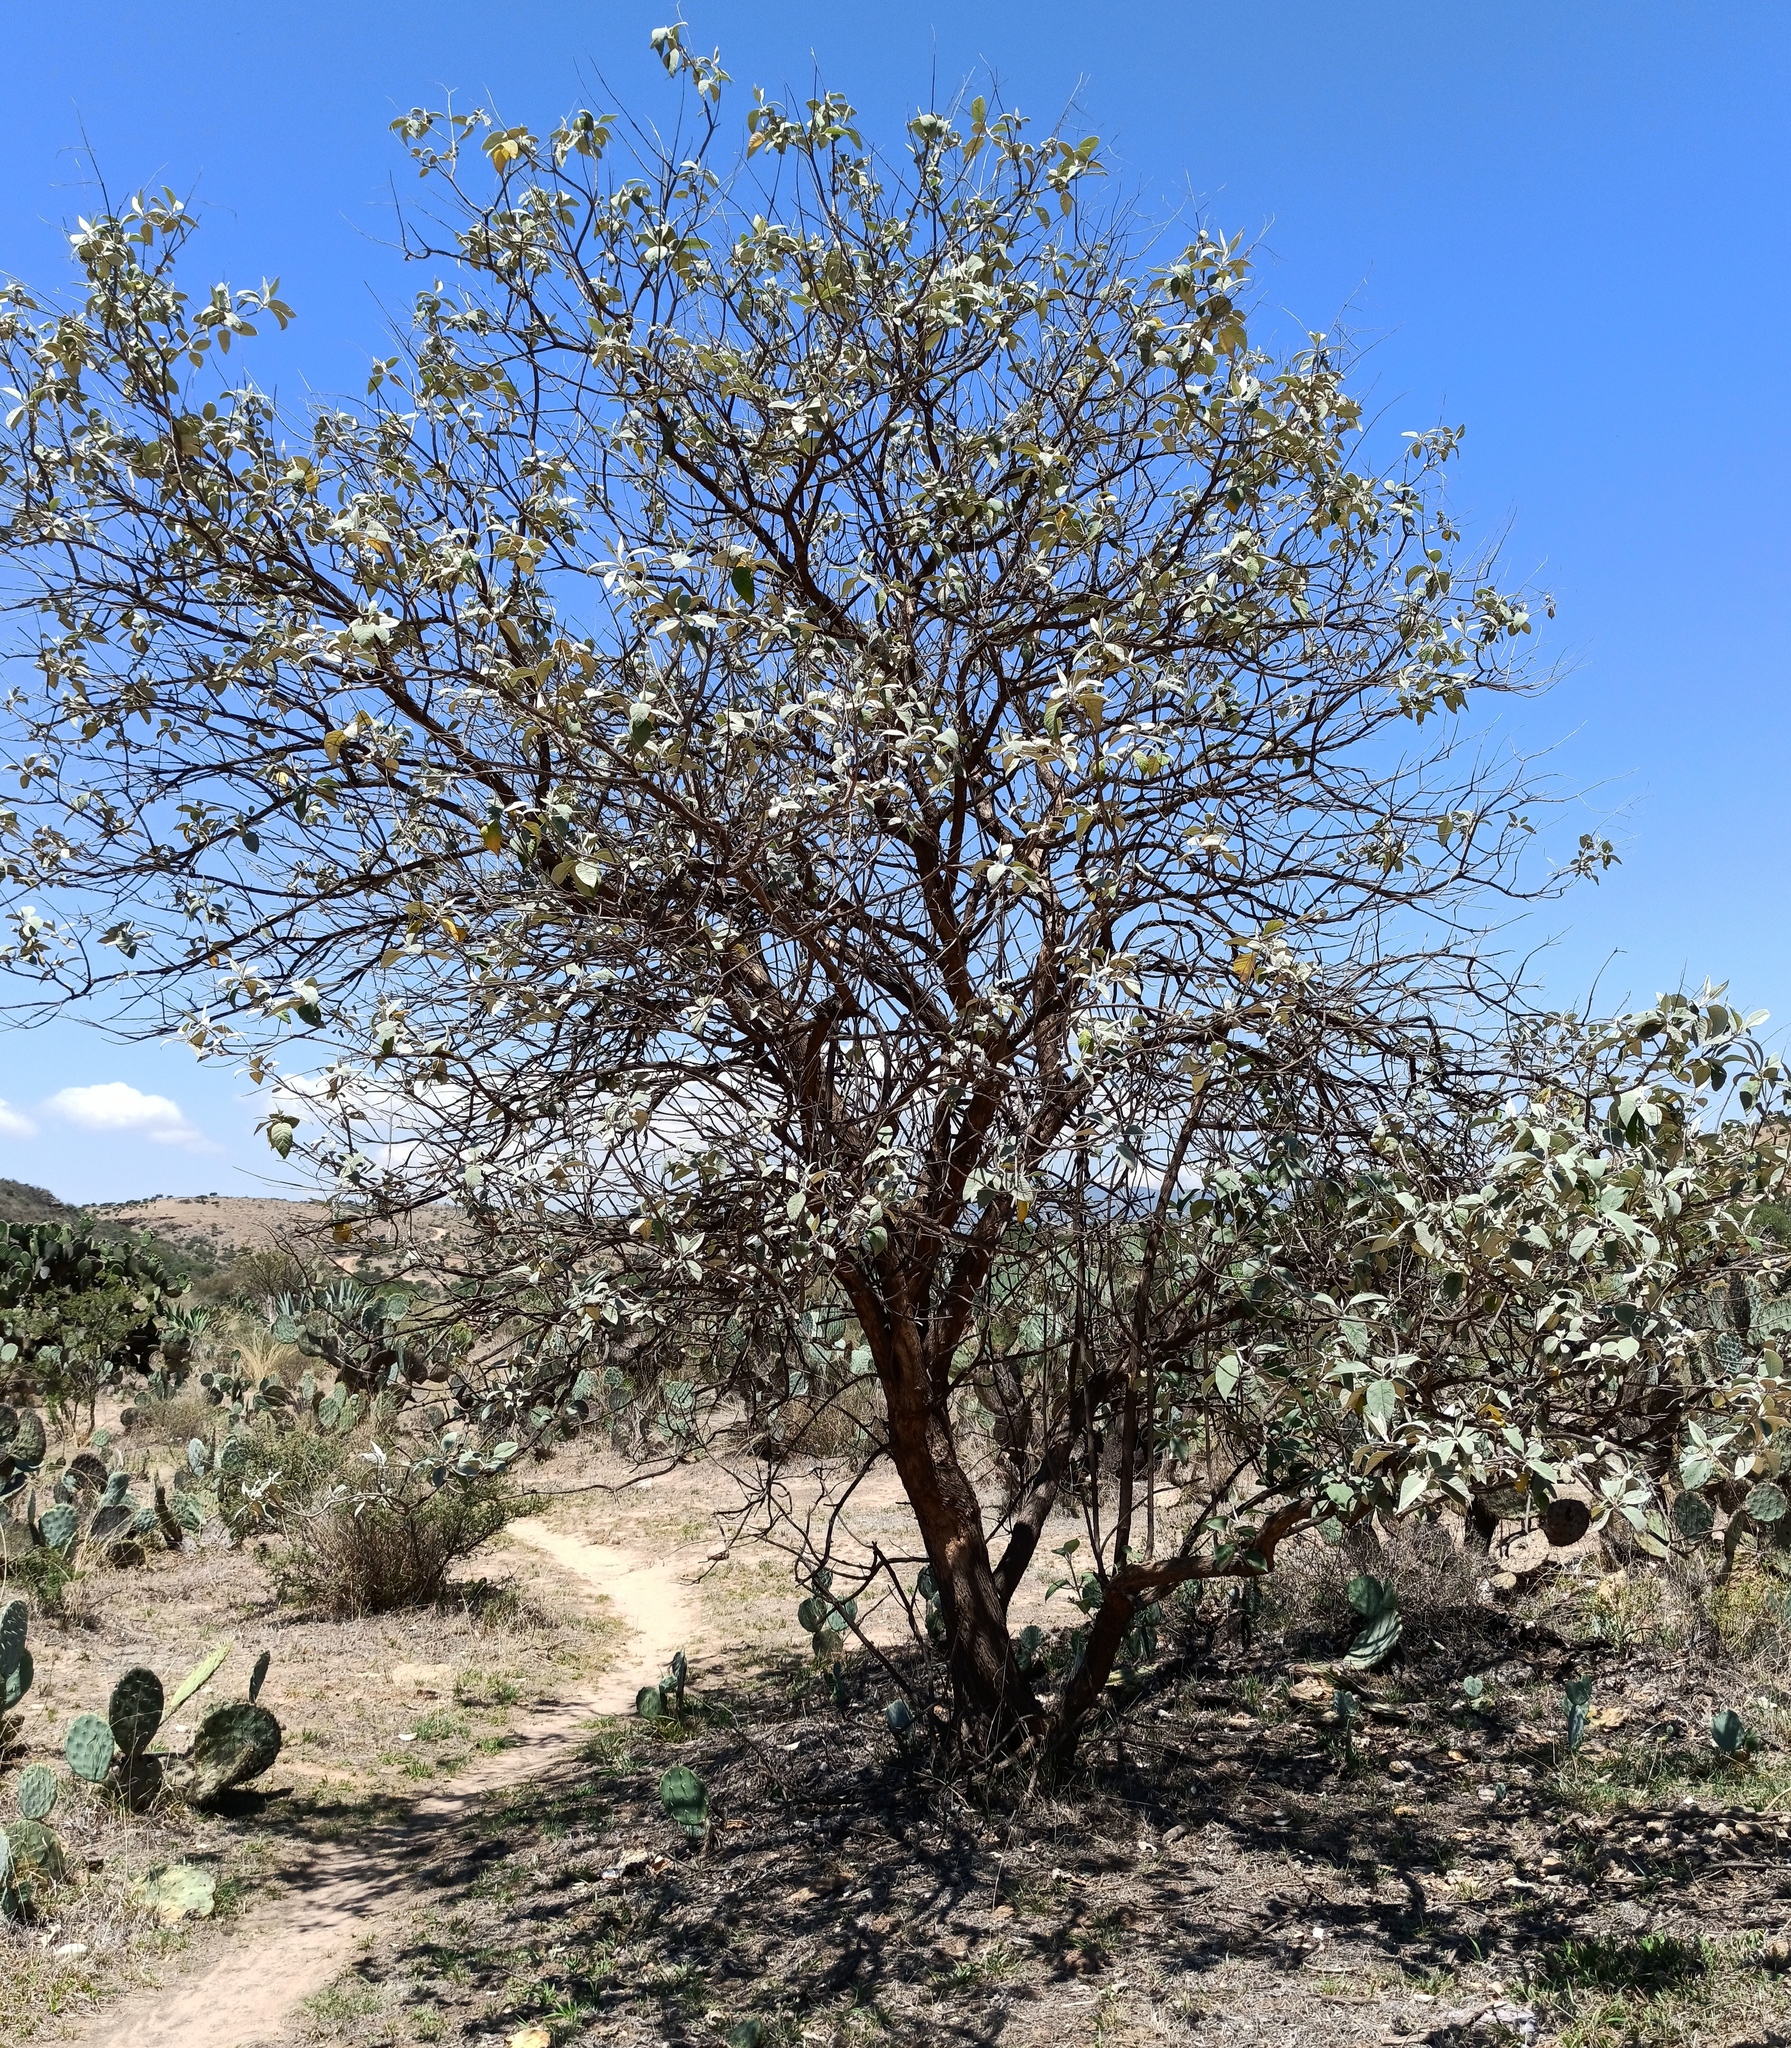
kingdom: Plantae
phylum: Tracheophyta
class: Magnoliopsida
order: Lamiales
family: Scrophulariaceae
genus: Buddleja
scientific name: Buddleja cordata
